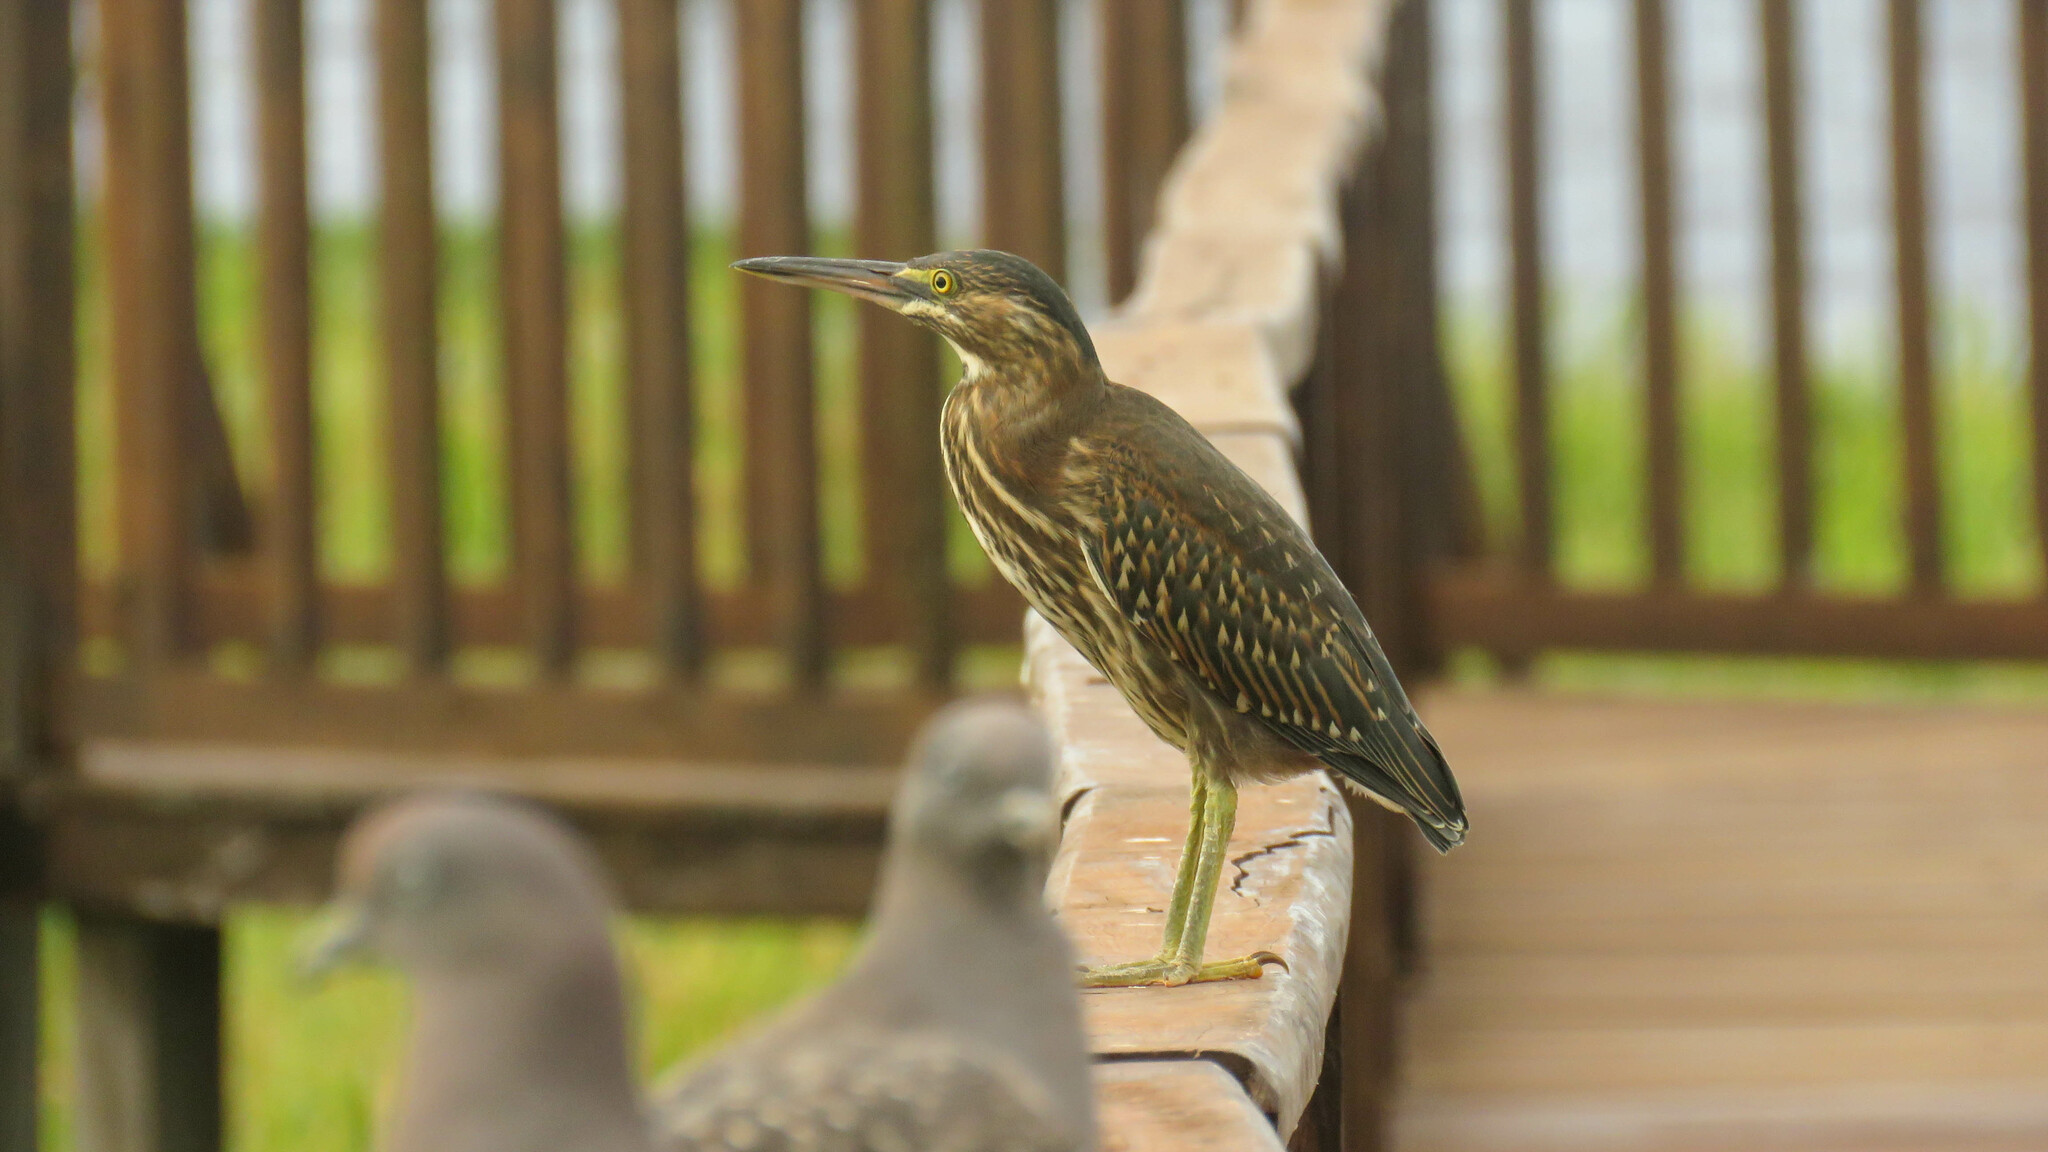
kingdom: Animalia
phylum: Chordata
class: Aves
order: Pelecaniformes
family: Ardeidae
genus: Butorides
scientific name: Butorides striata
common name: Striated heron
